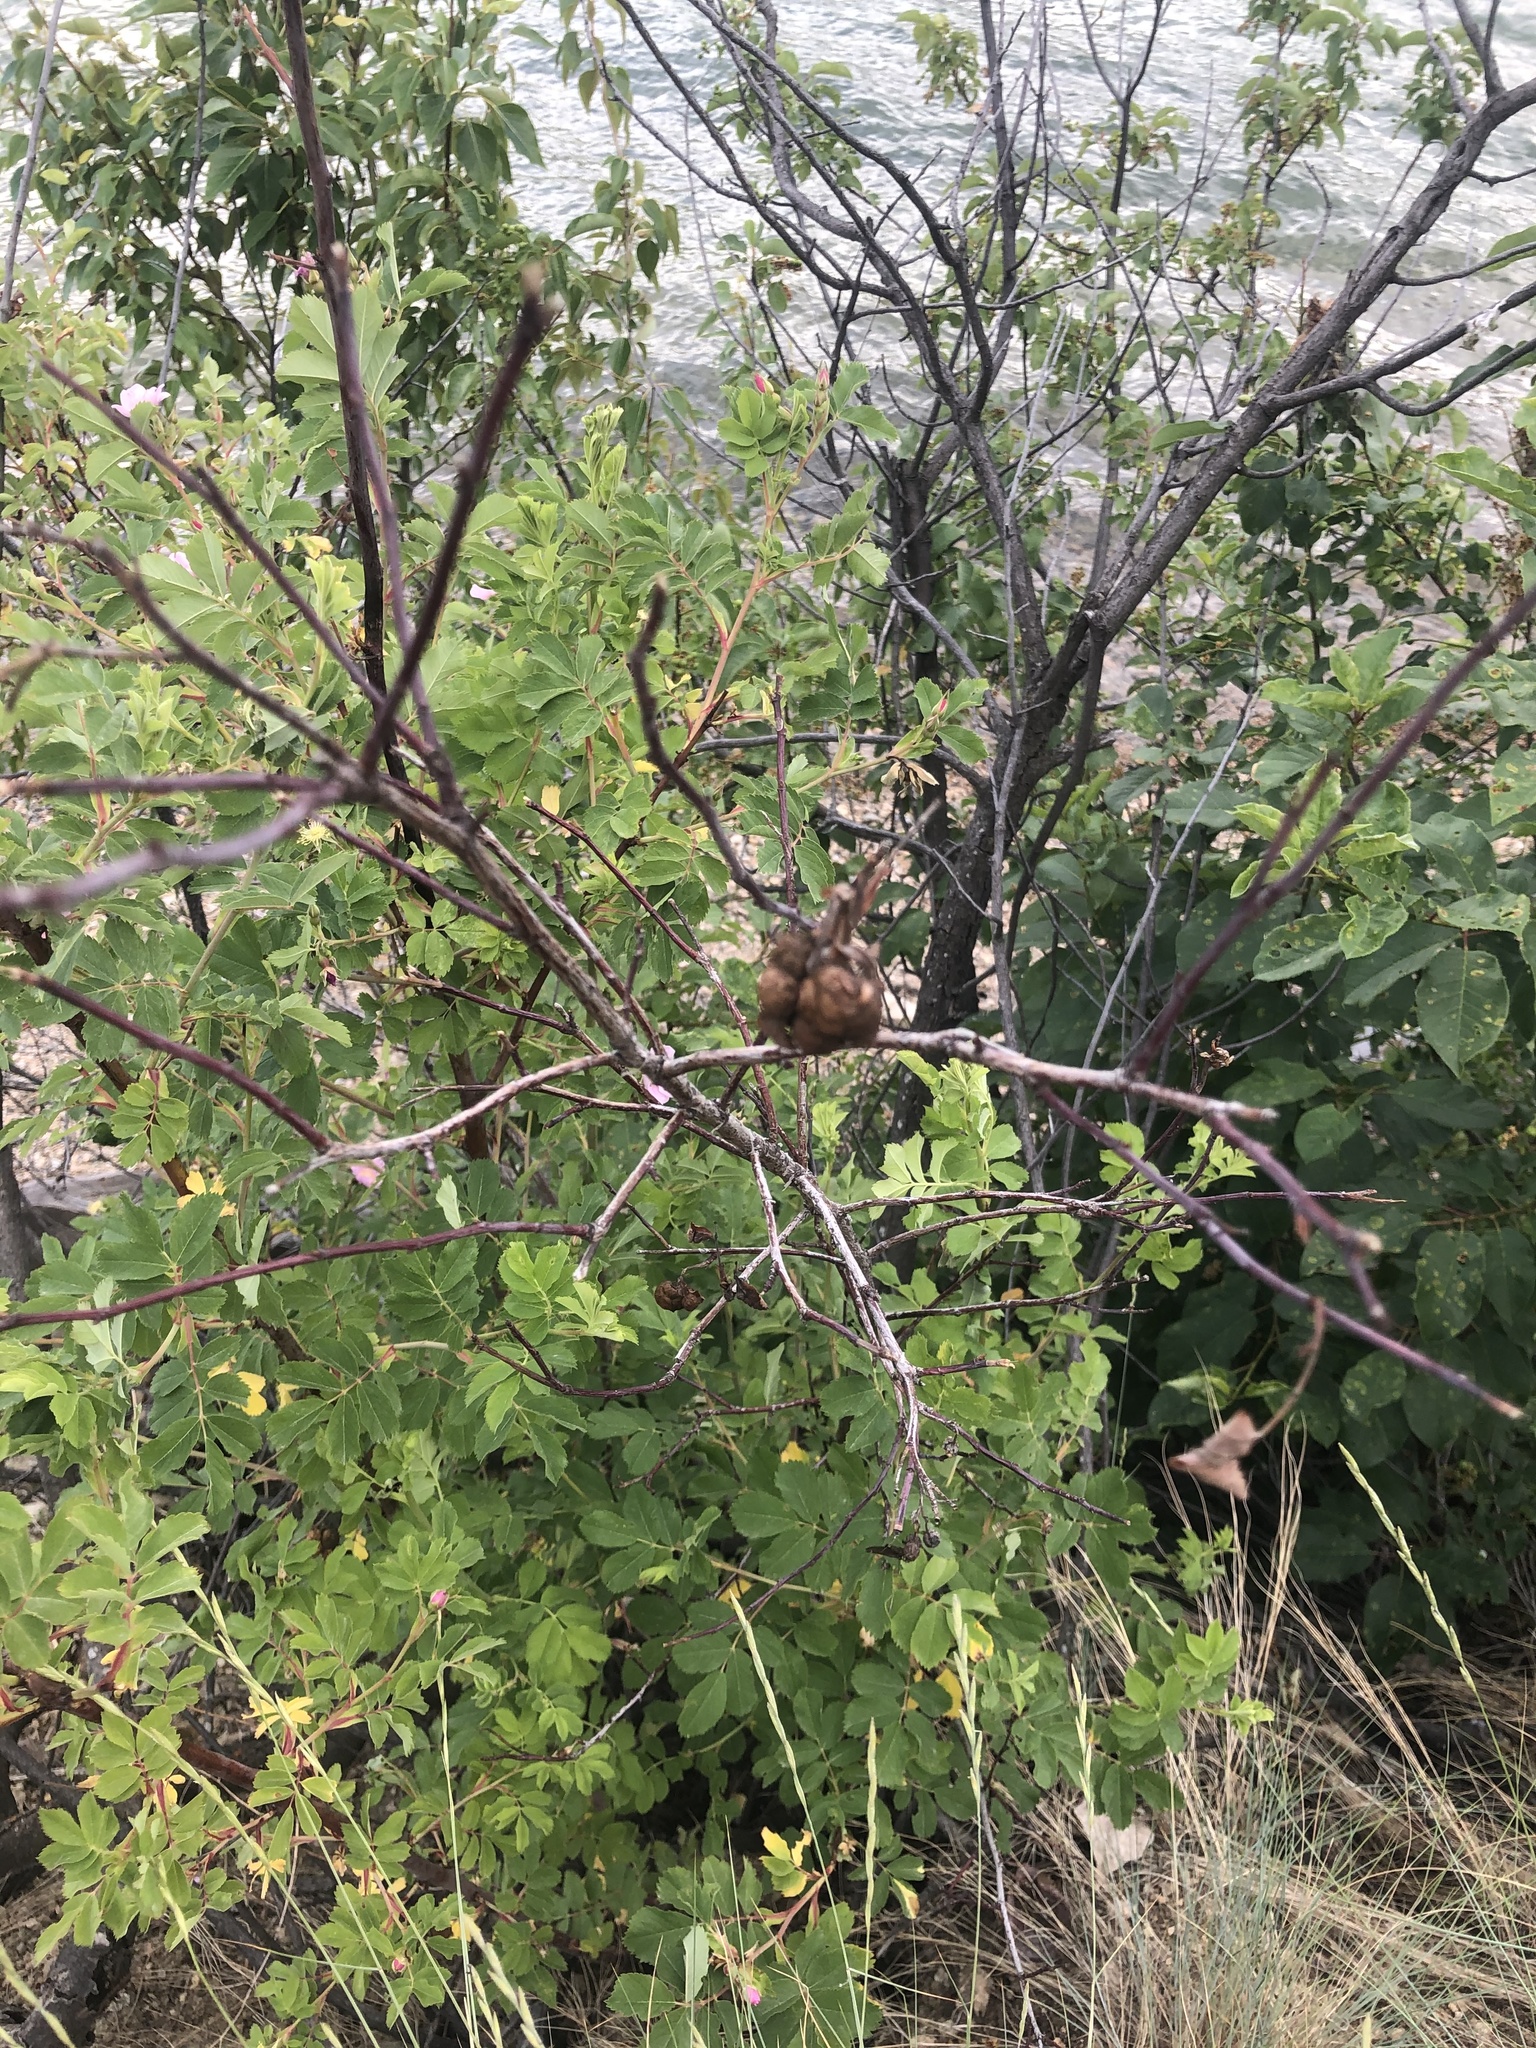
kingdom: Animalia
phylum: Arthropoda
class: Insecta
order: Hymenoptera
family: Cynipidae
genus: Diplolepis
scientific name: Diplolepis variabilis
